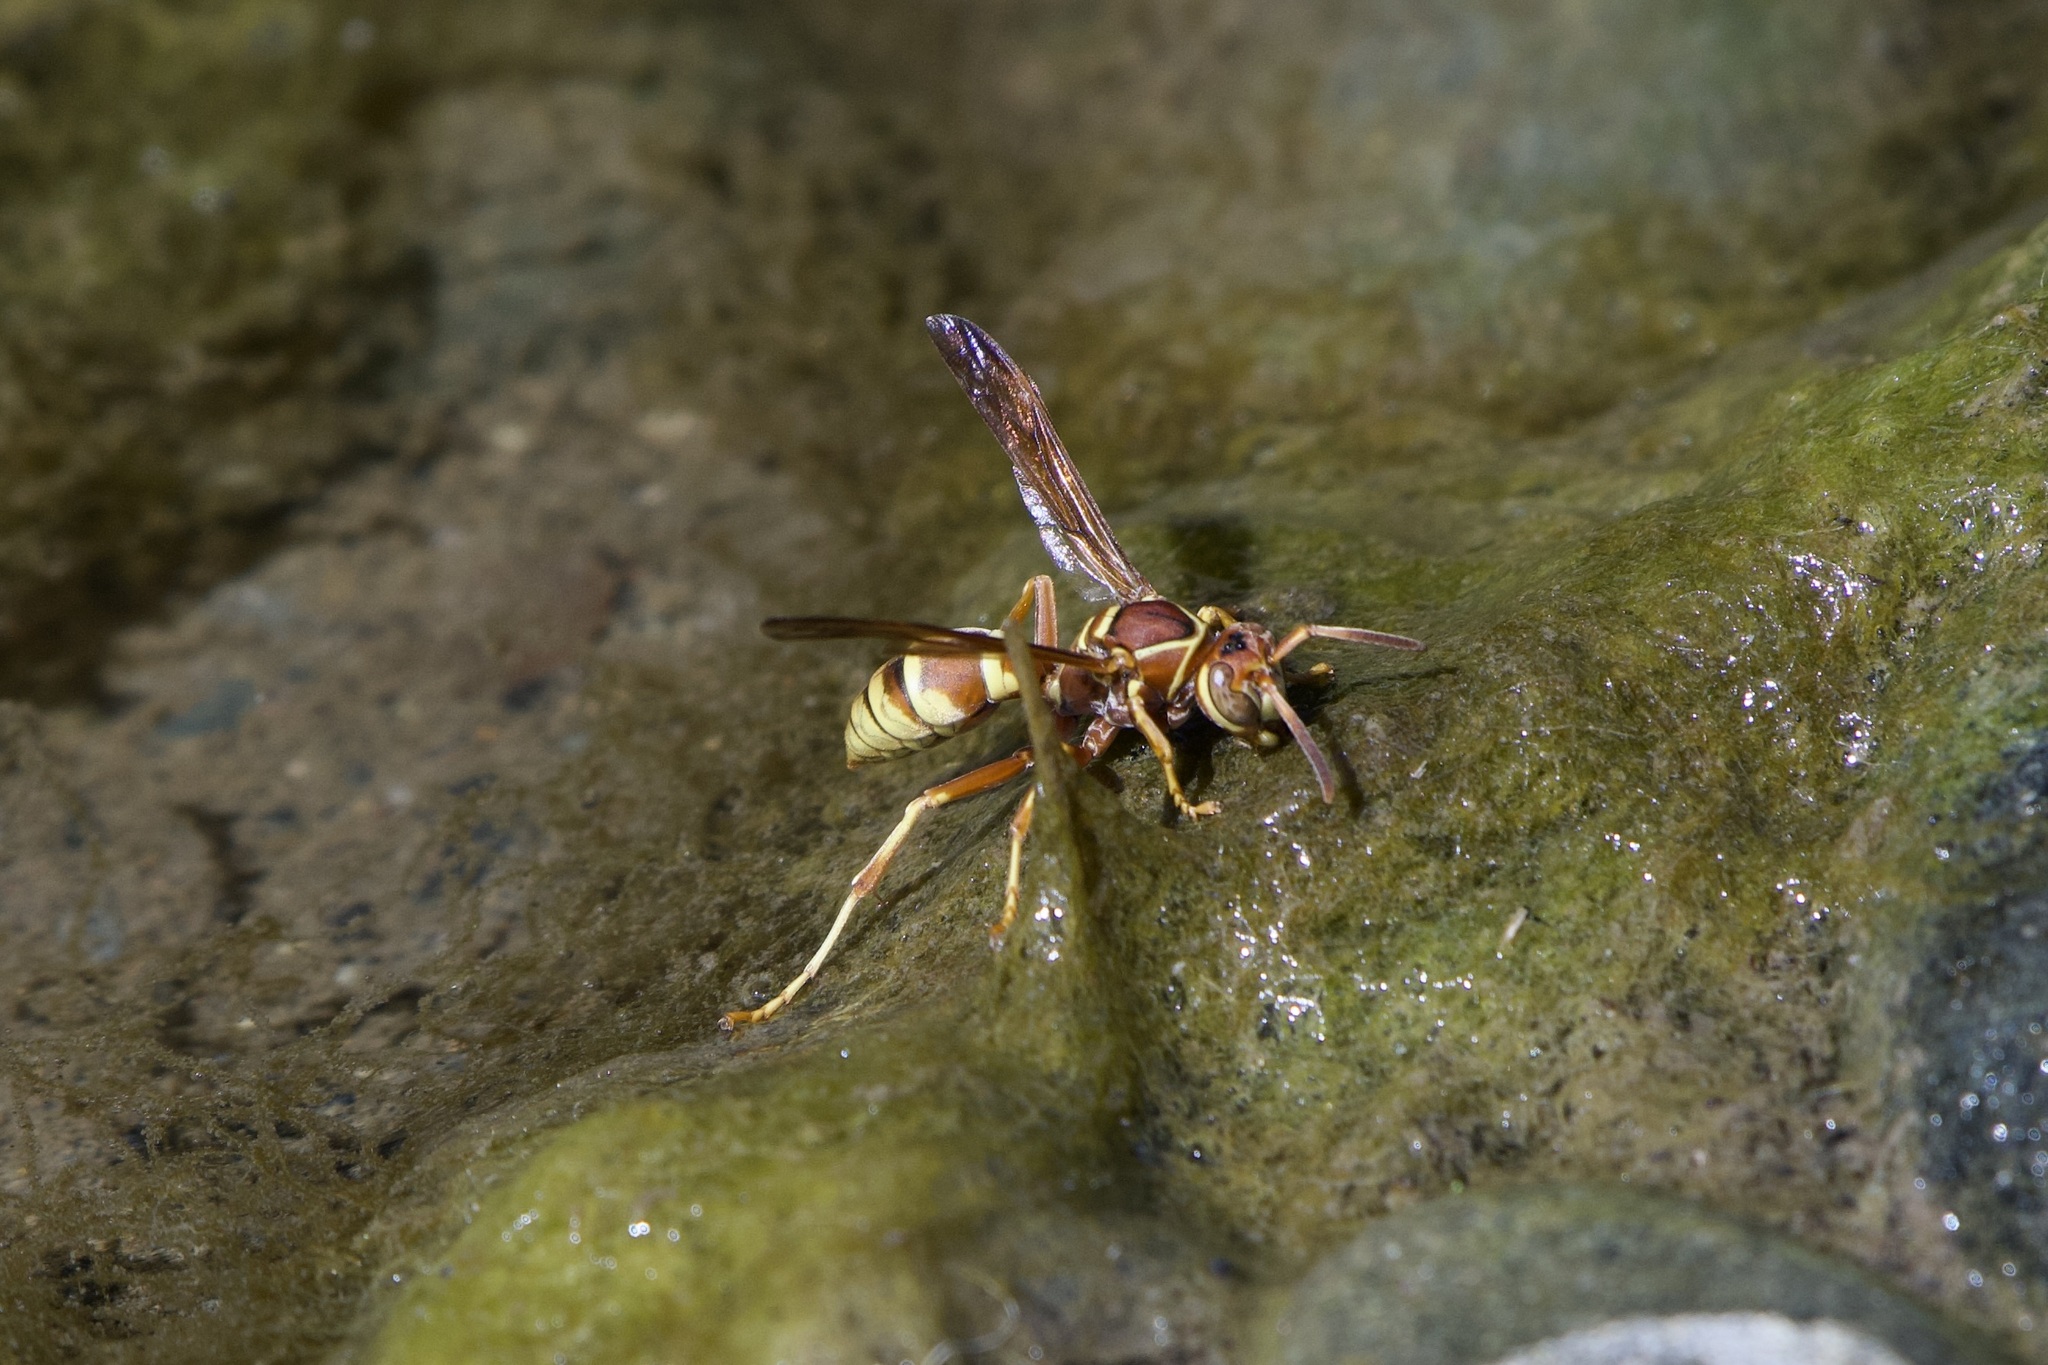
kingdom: Animalia
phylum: Arthropoda
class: Insecta
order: Hymenoptera
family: Eumenidae
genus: Polistes
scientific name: Polistes dorsalis
